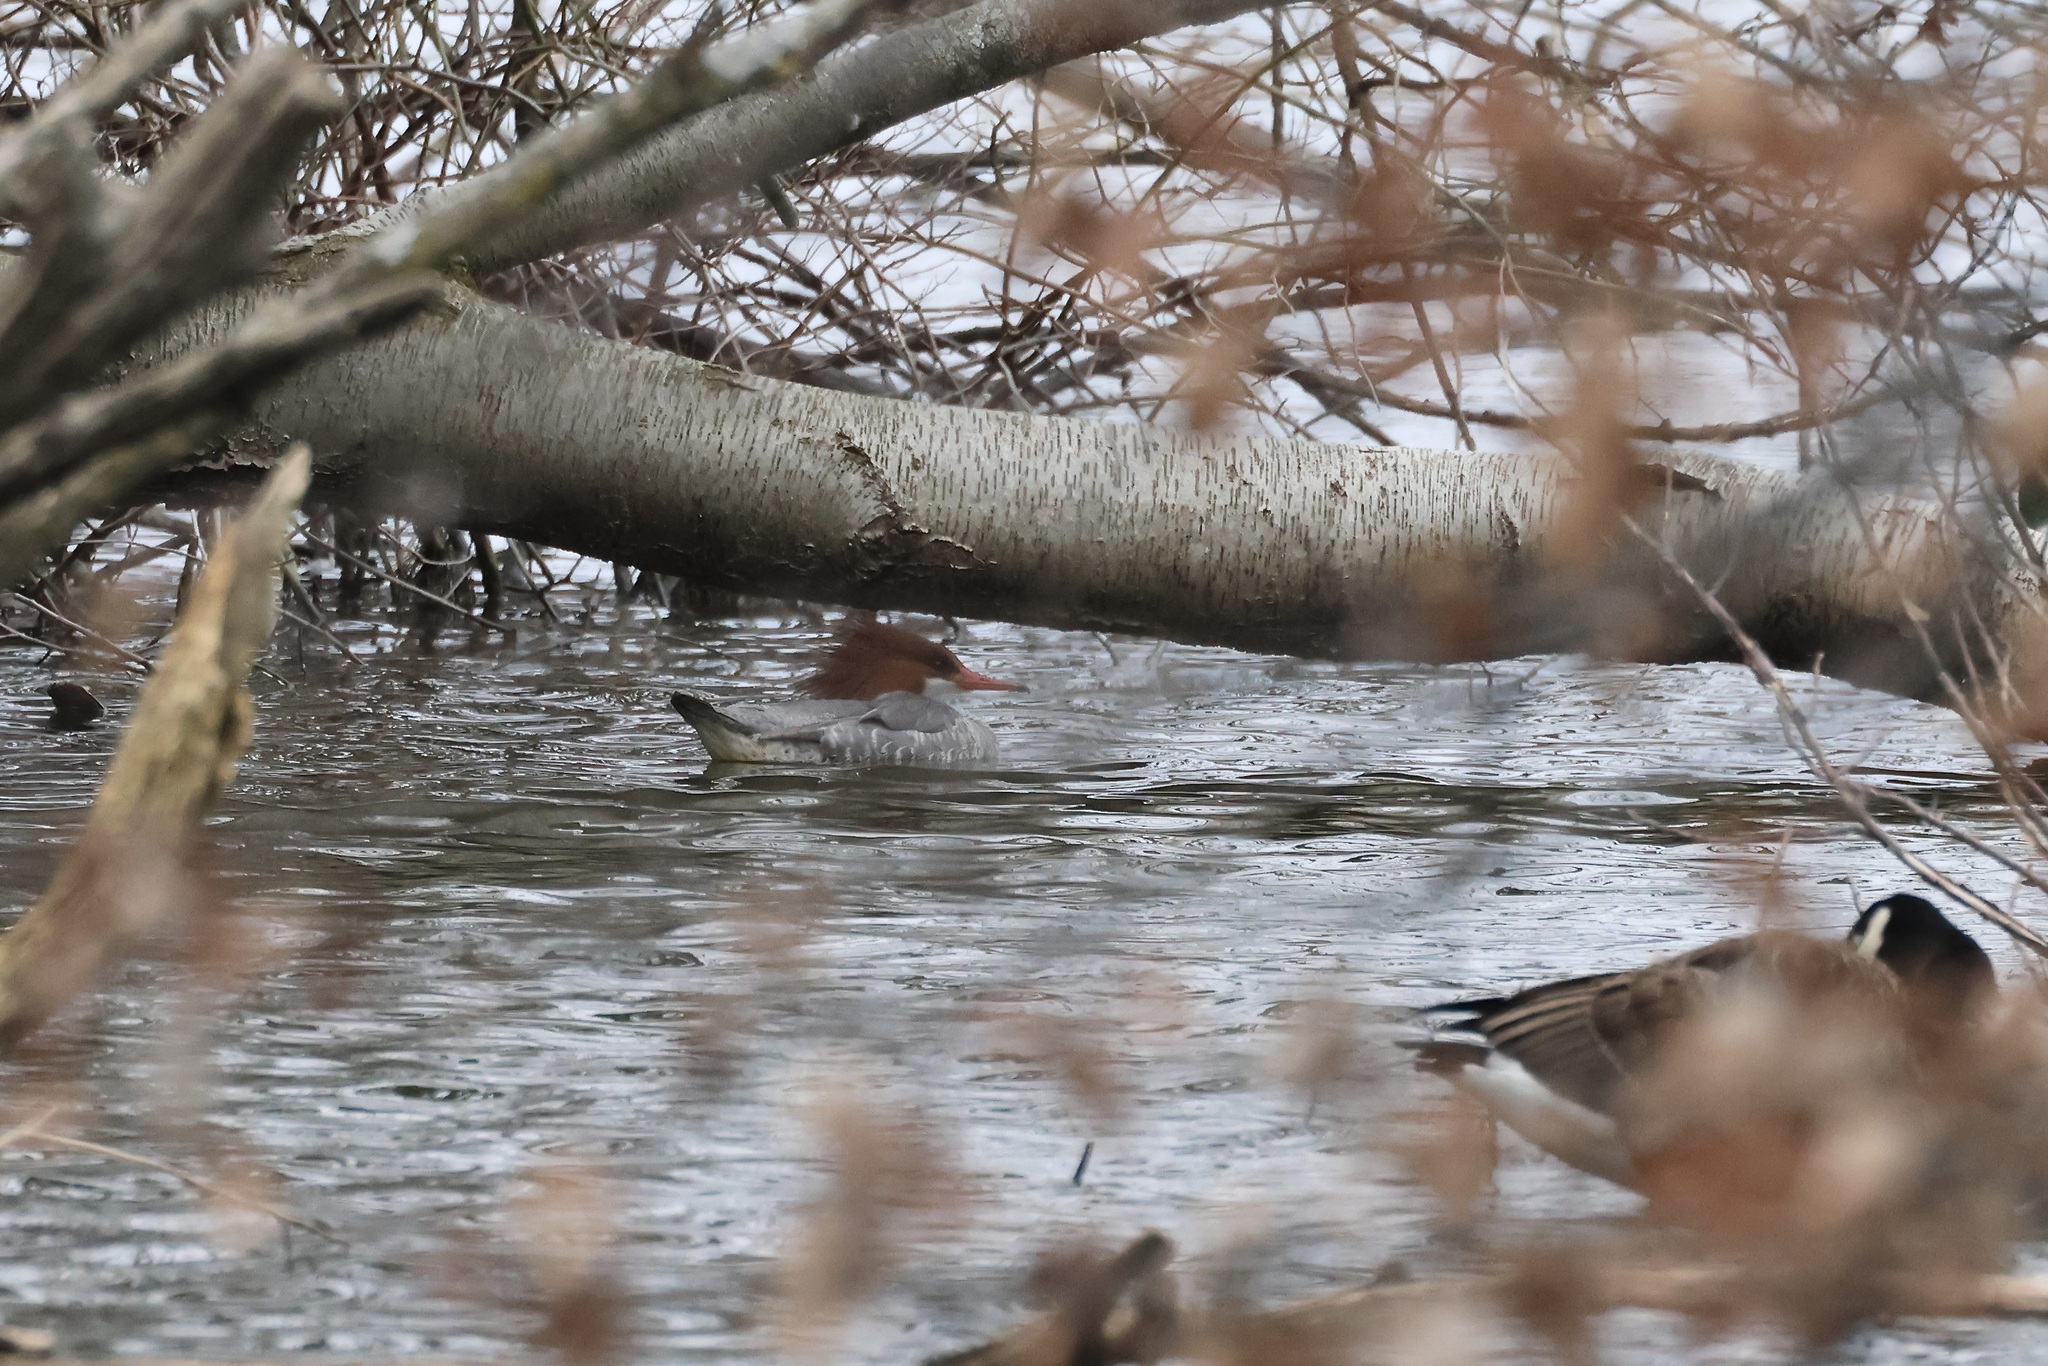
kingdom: Animalia
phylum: Chordata
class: Aves
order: Anseriformes
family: Anatidae
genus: Mergus
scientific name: Mergus merganser
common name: Common merganser
